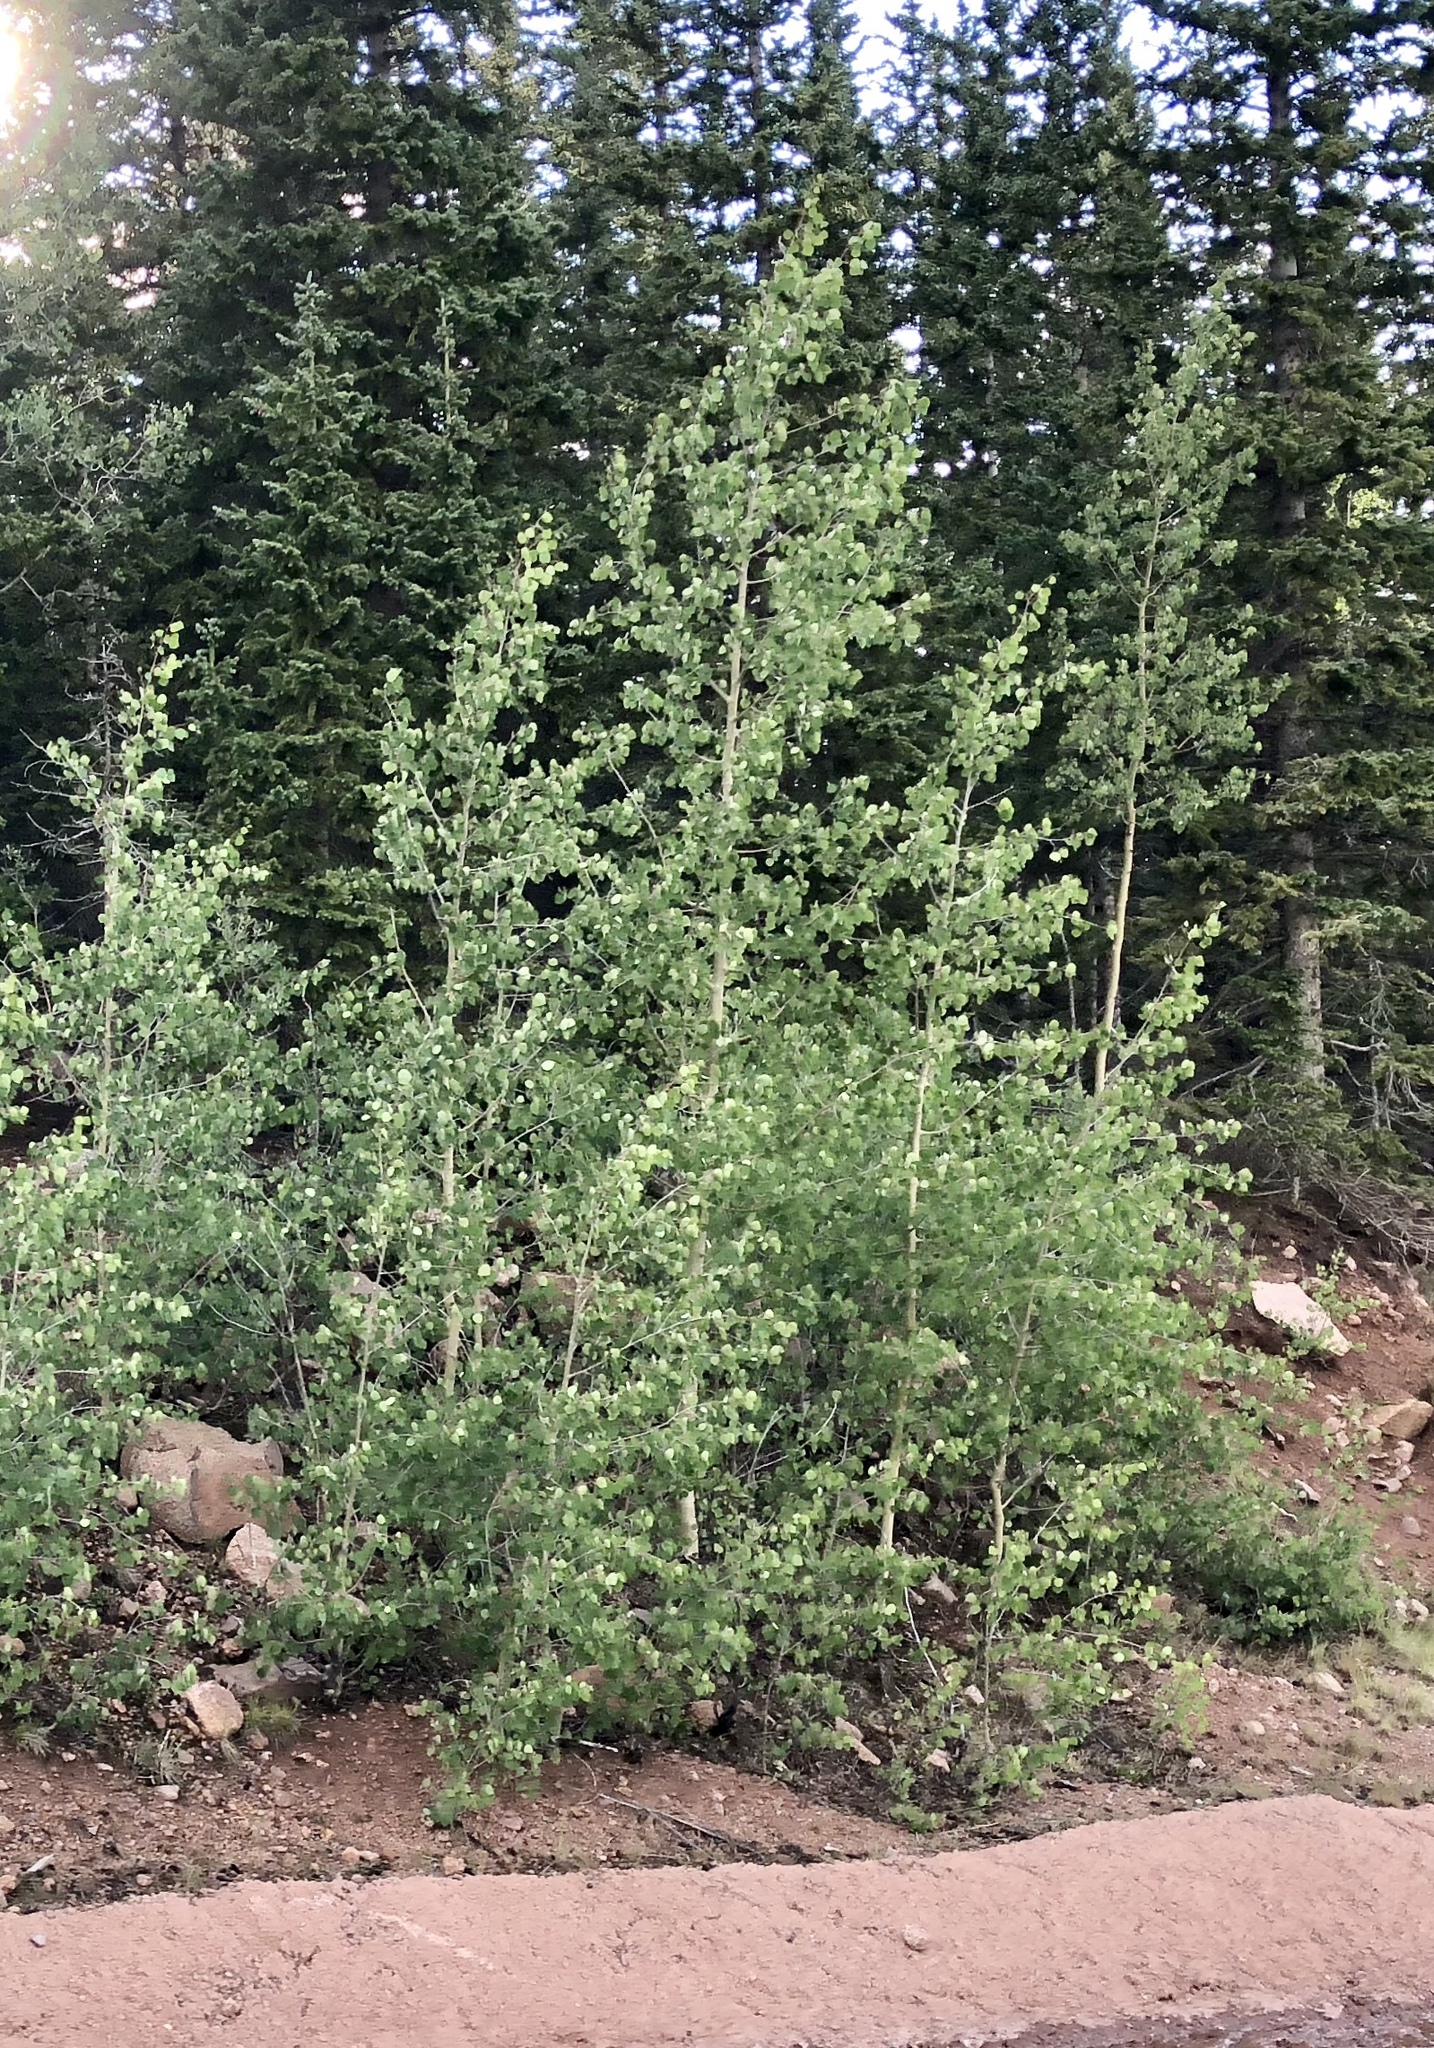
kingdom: Plantae
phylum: Tracheophyta
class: Magnoliopsida
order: Malpighiales
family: Salicaceae
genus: Populus
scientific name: Populus tremuloides
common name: Quaking aspen
